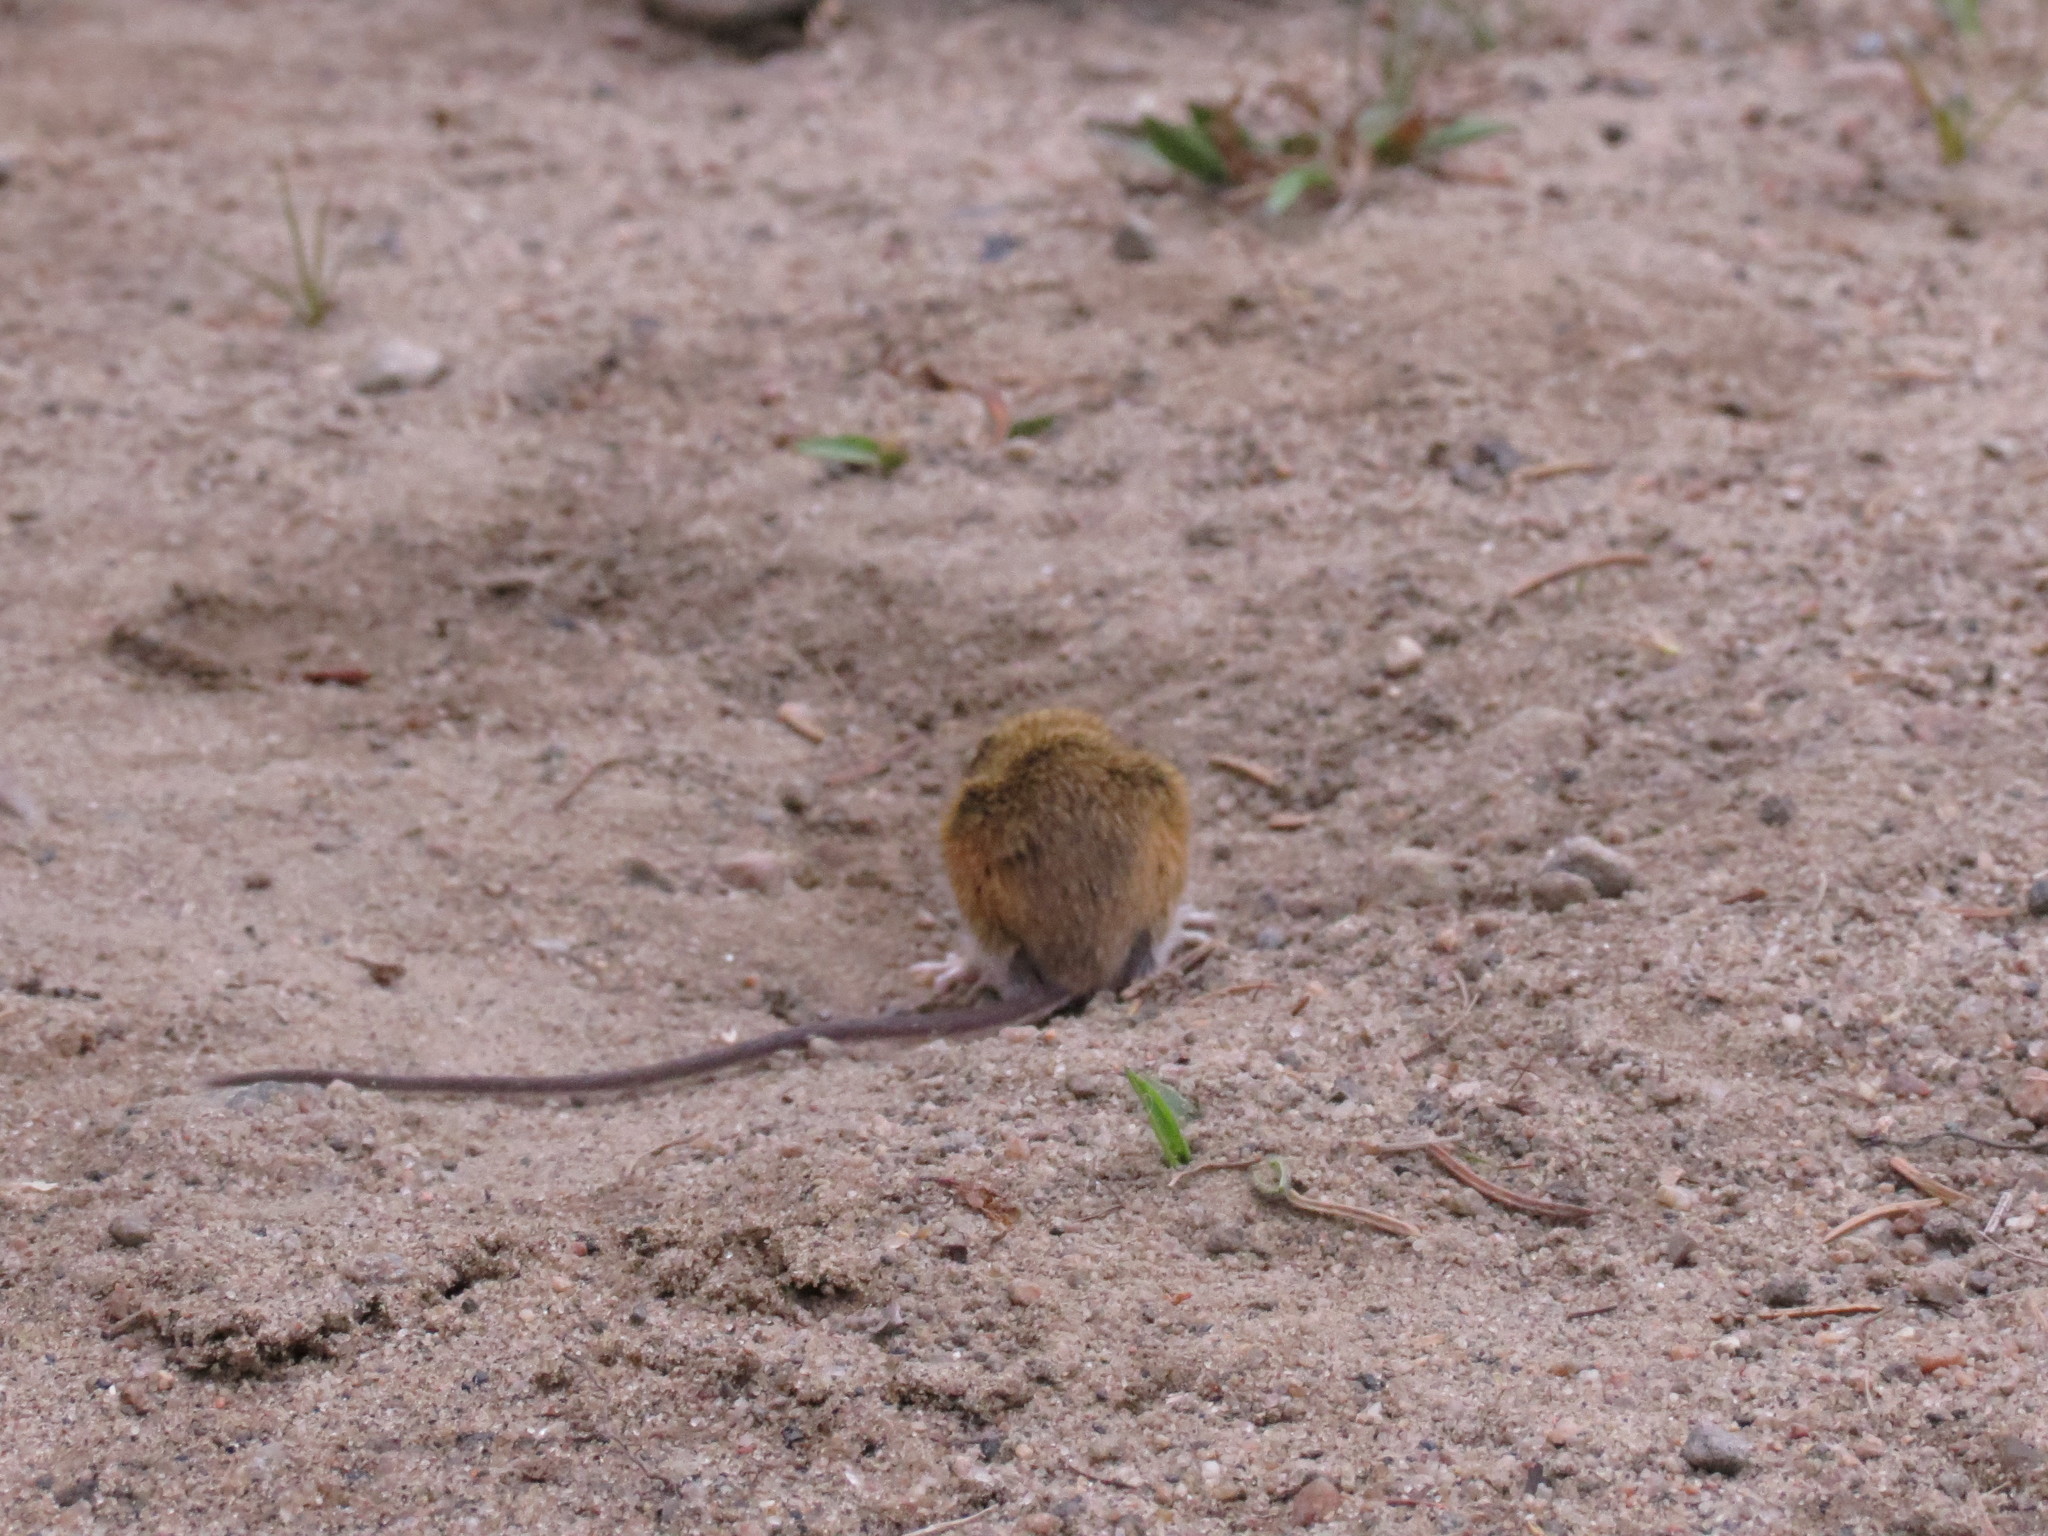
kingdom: Animalia
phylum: Chordata
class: Mammalia
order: Rodentia
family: Dipodidae
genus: Zapus
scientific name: Zapus hudsonius
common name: Meadow jumping mouse
